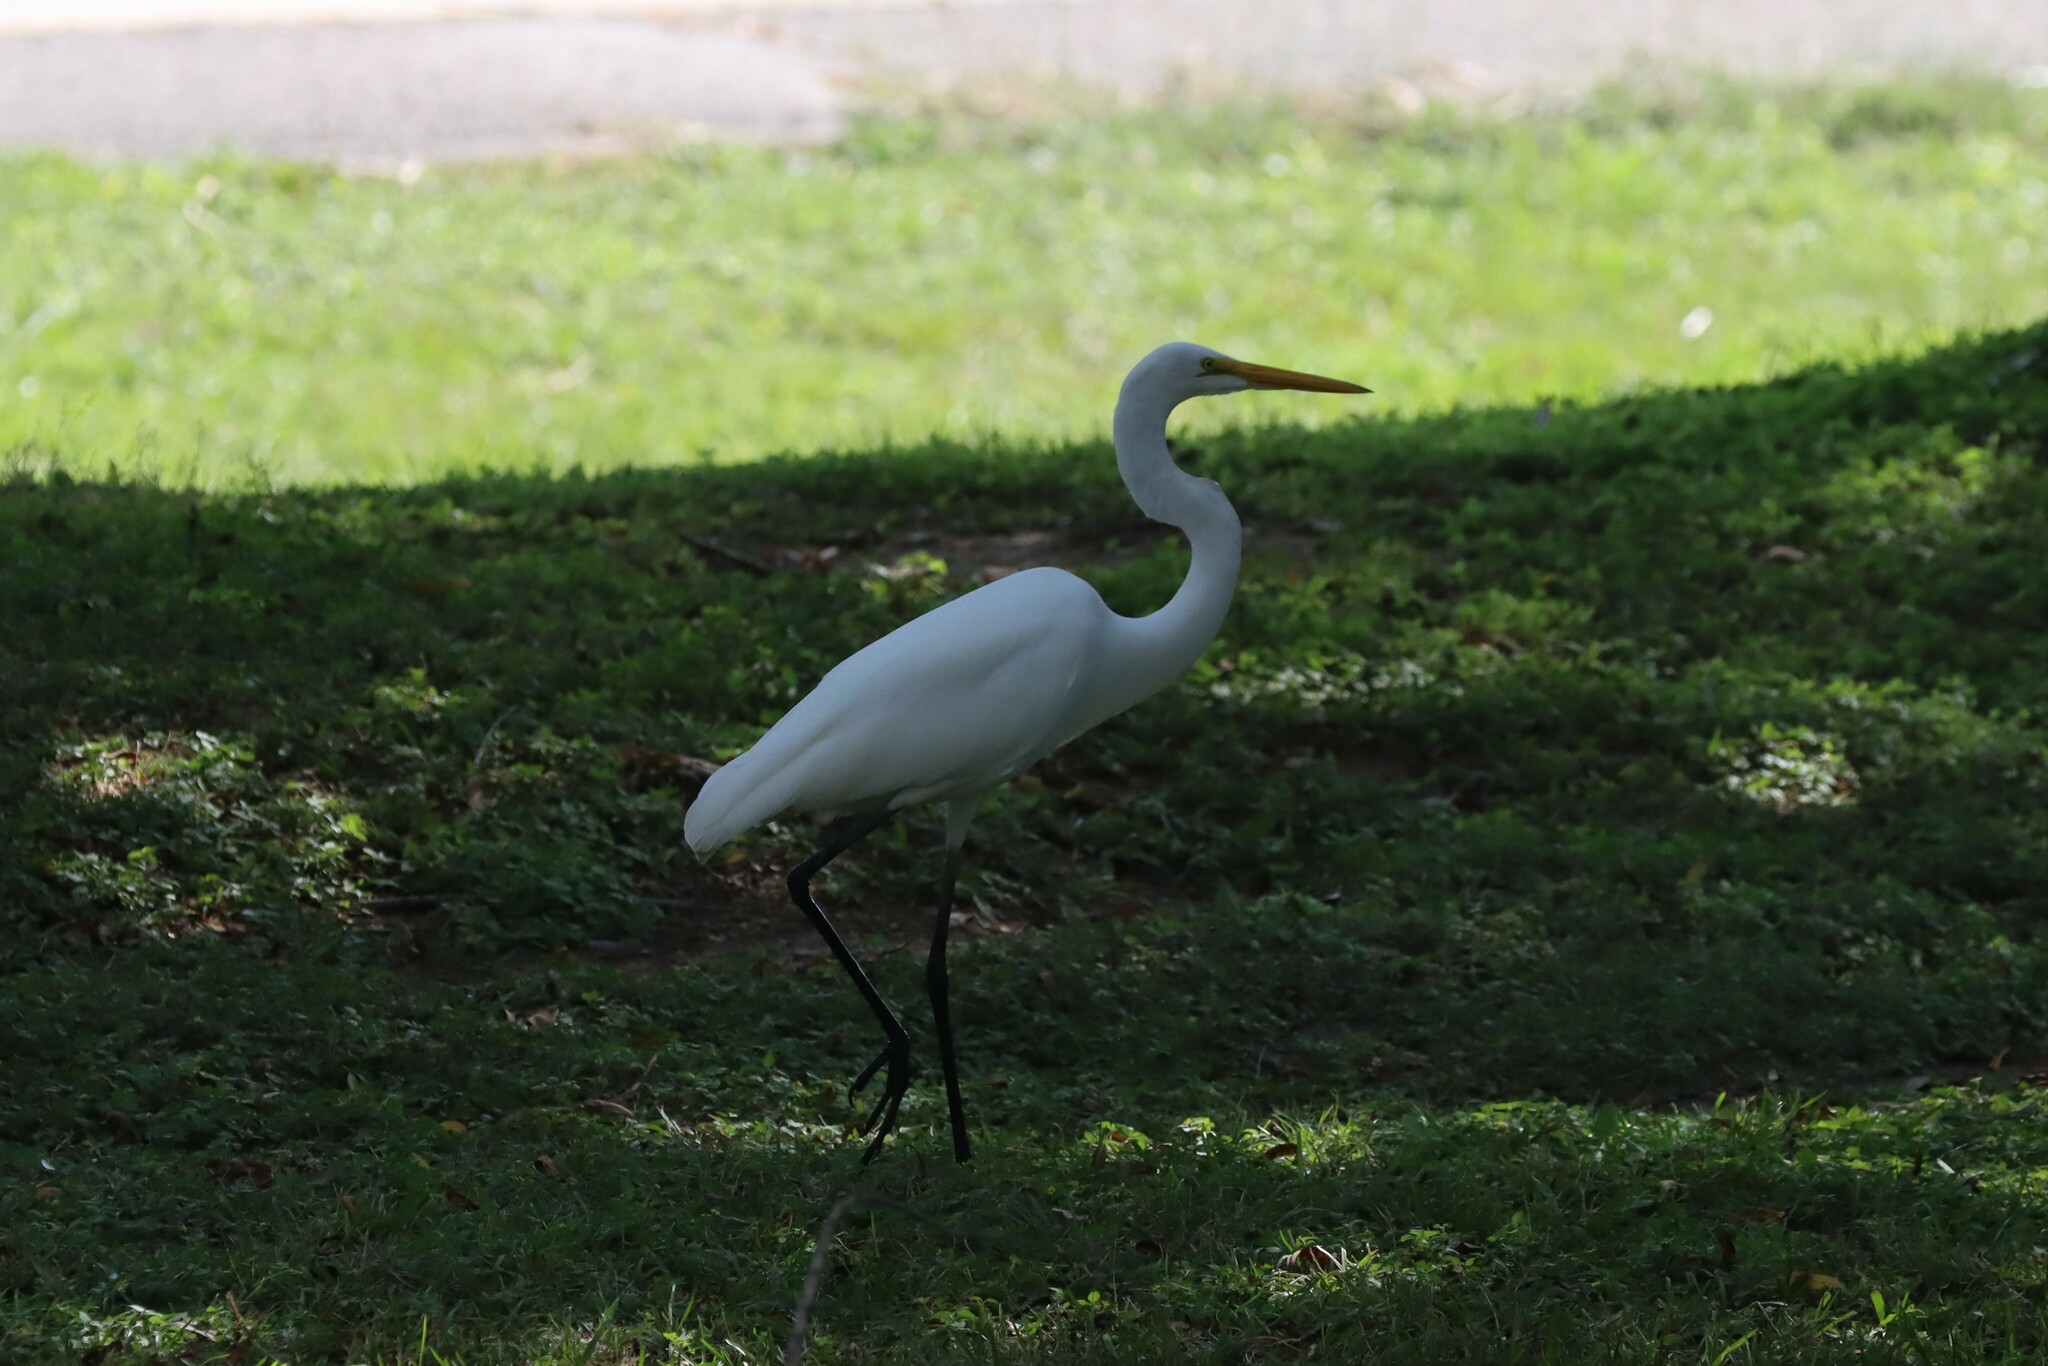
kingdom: Animalia
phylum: Chordata
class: Aves
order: Pelecaniformes
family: Ardeidae
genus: Ardea
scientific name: Ardea alba
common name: Great egret
